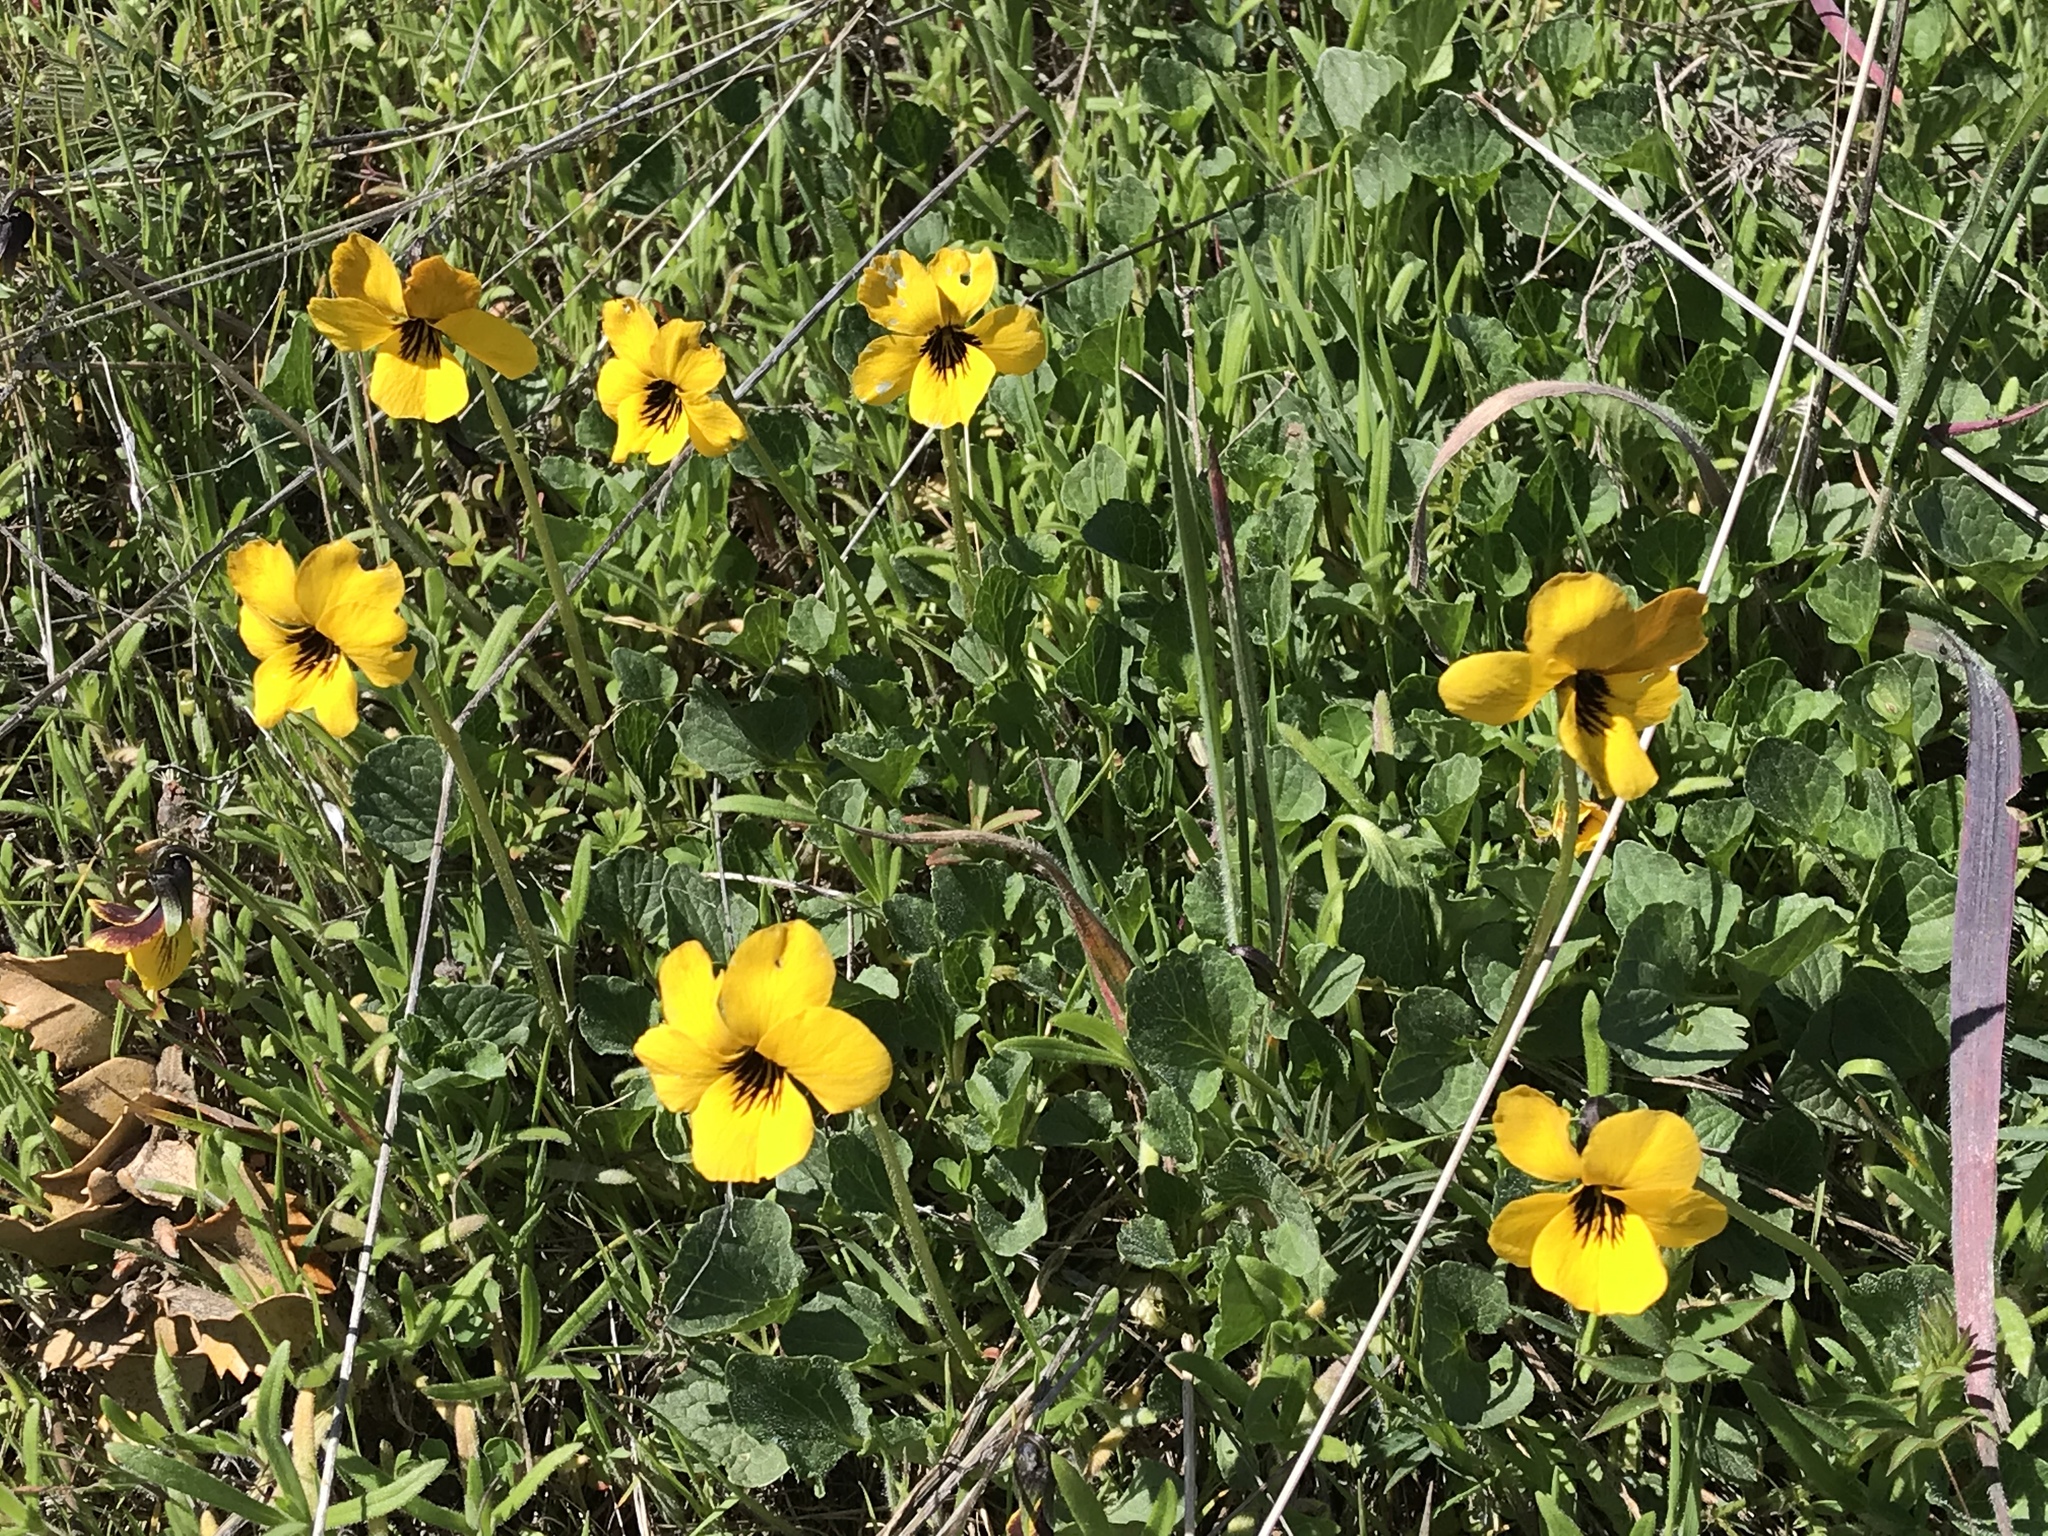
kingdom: Plantae
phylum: Tracheophyta
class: Magnoliopsida
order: Malpighiales
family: Violaceae
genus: Viola
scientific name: Viola pedunculata
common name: California golden violet
